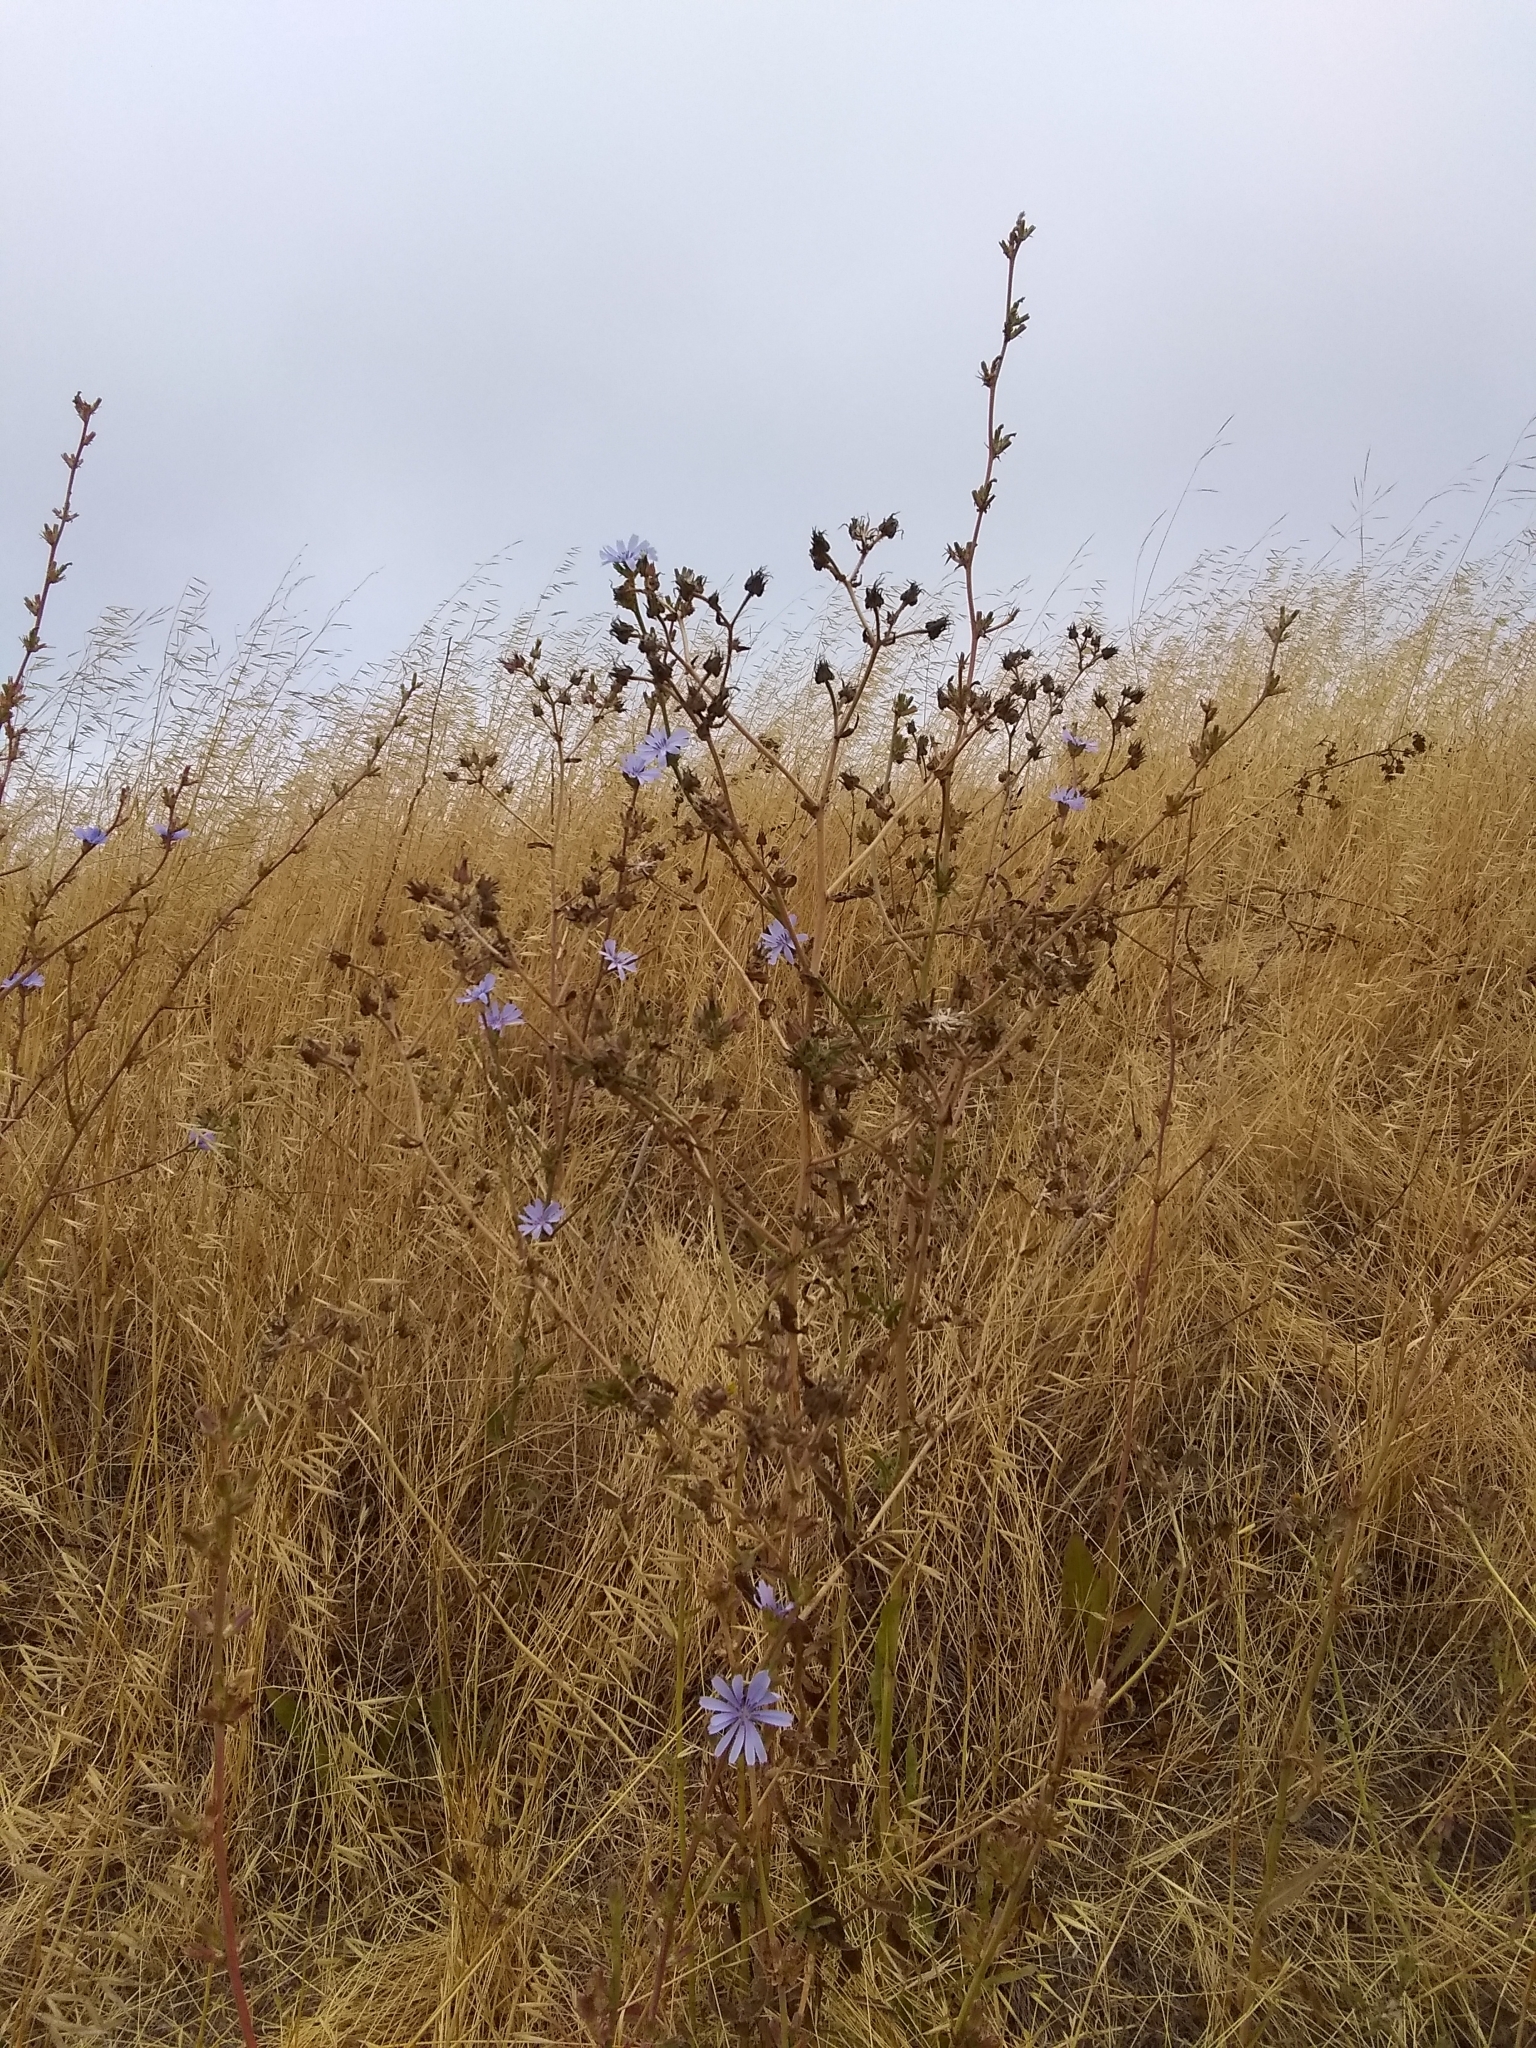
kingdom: Plantae
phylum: Tracheophyta
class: Magnoliopsida
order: Asterales
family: Asteraceae
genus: Cichorium
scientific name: Cichorium intybus
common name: Chicory
